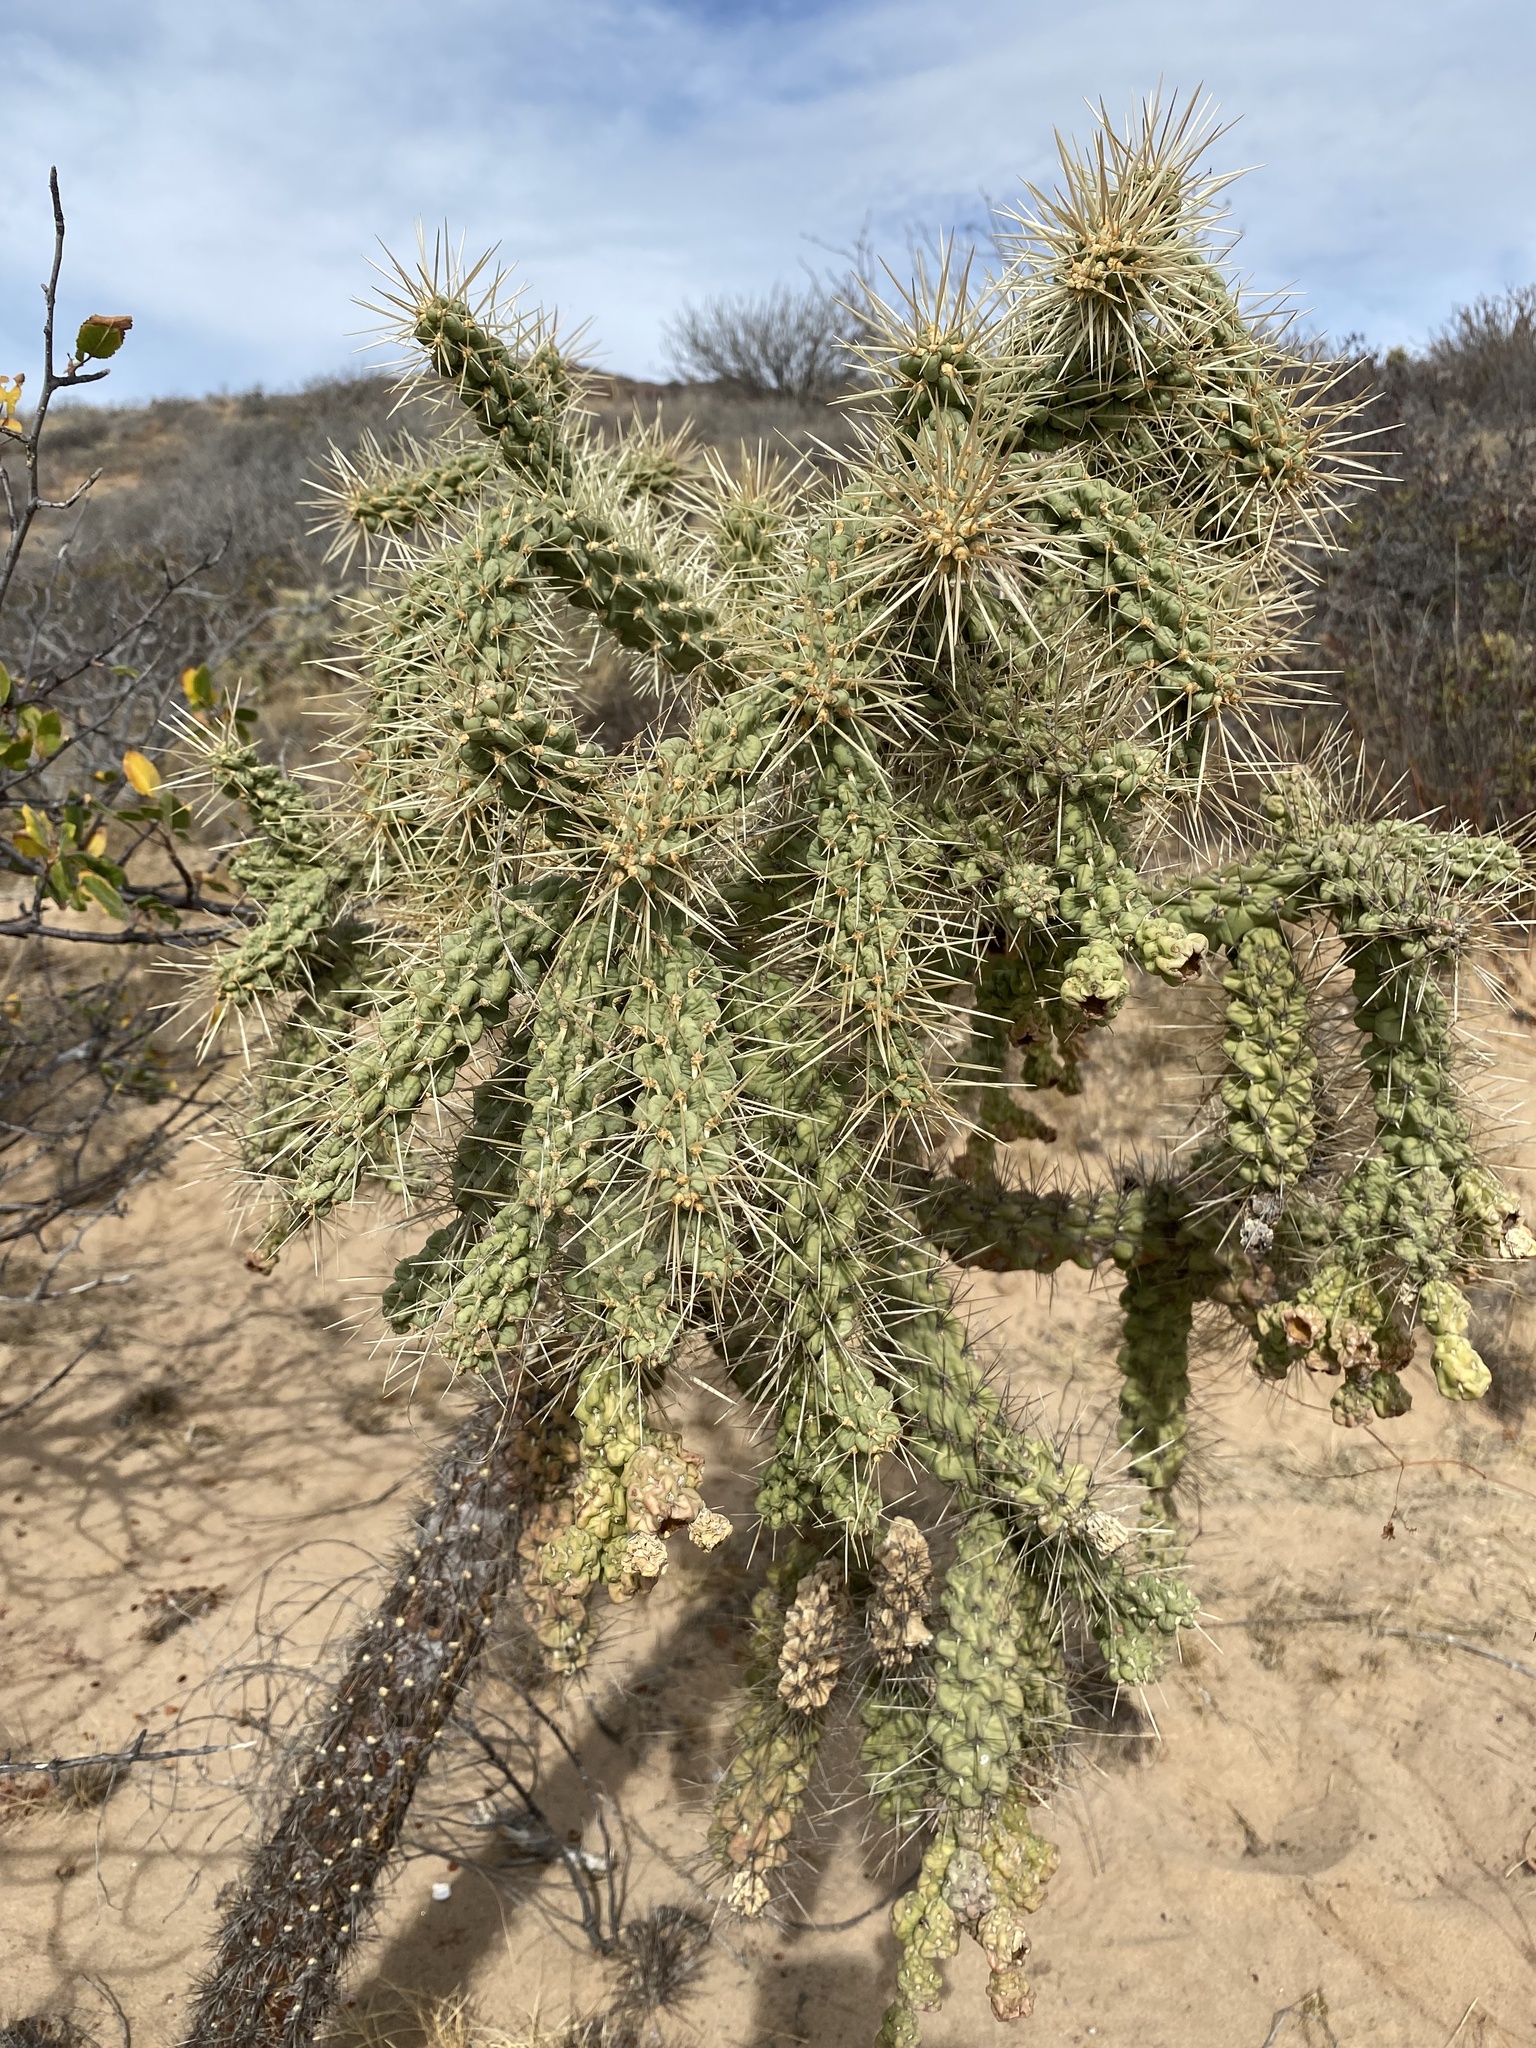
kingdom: Plantae
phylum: Tracheophyta
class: Magnoliopsida
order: Caryophyllales
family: Cactaceae
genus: Cylindropuntia
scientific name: Cylindropuntia fulgida
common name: Jumping cholla
